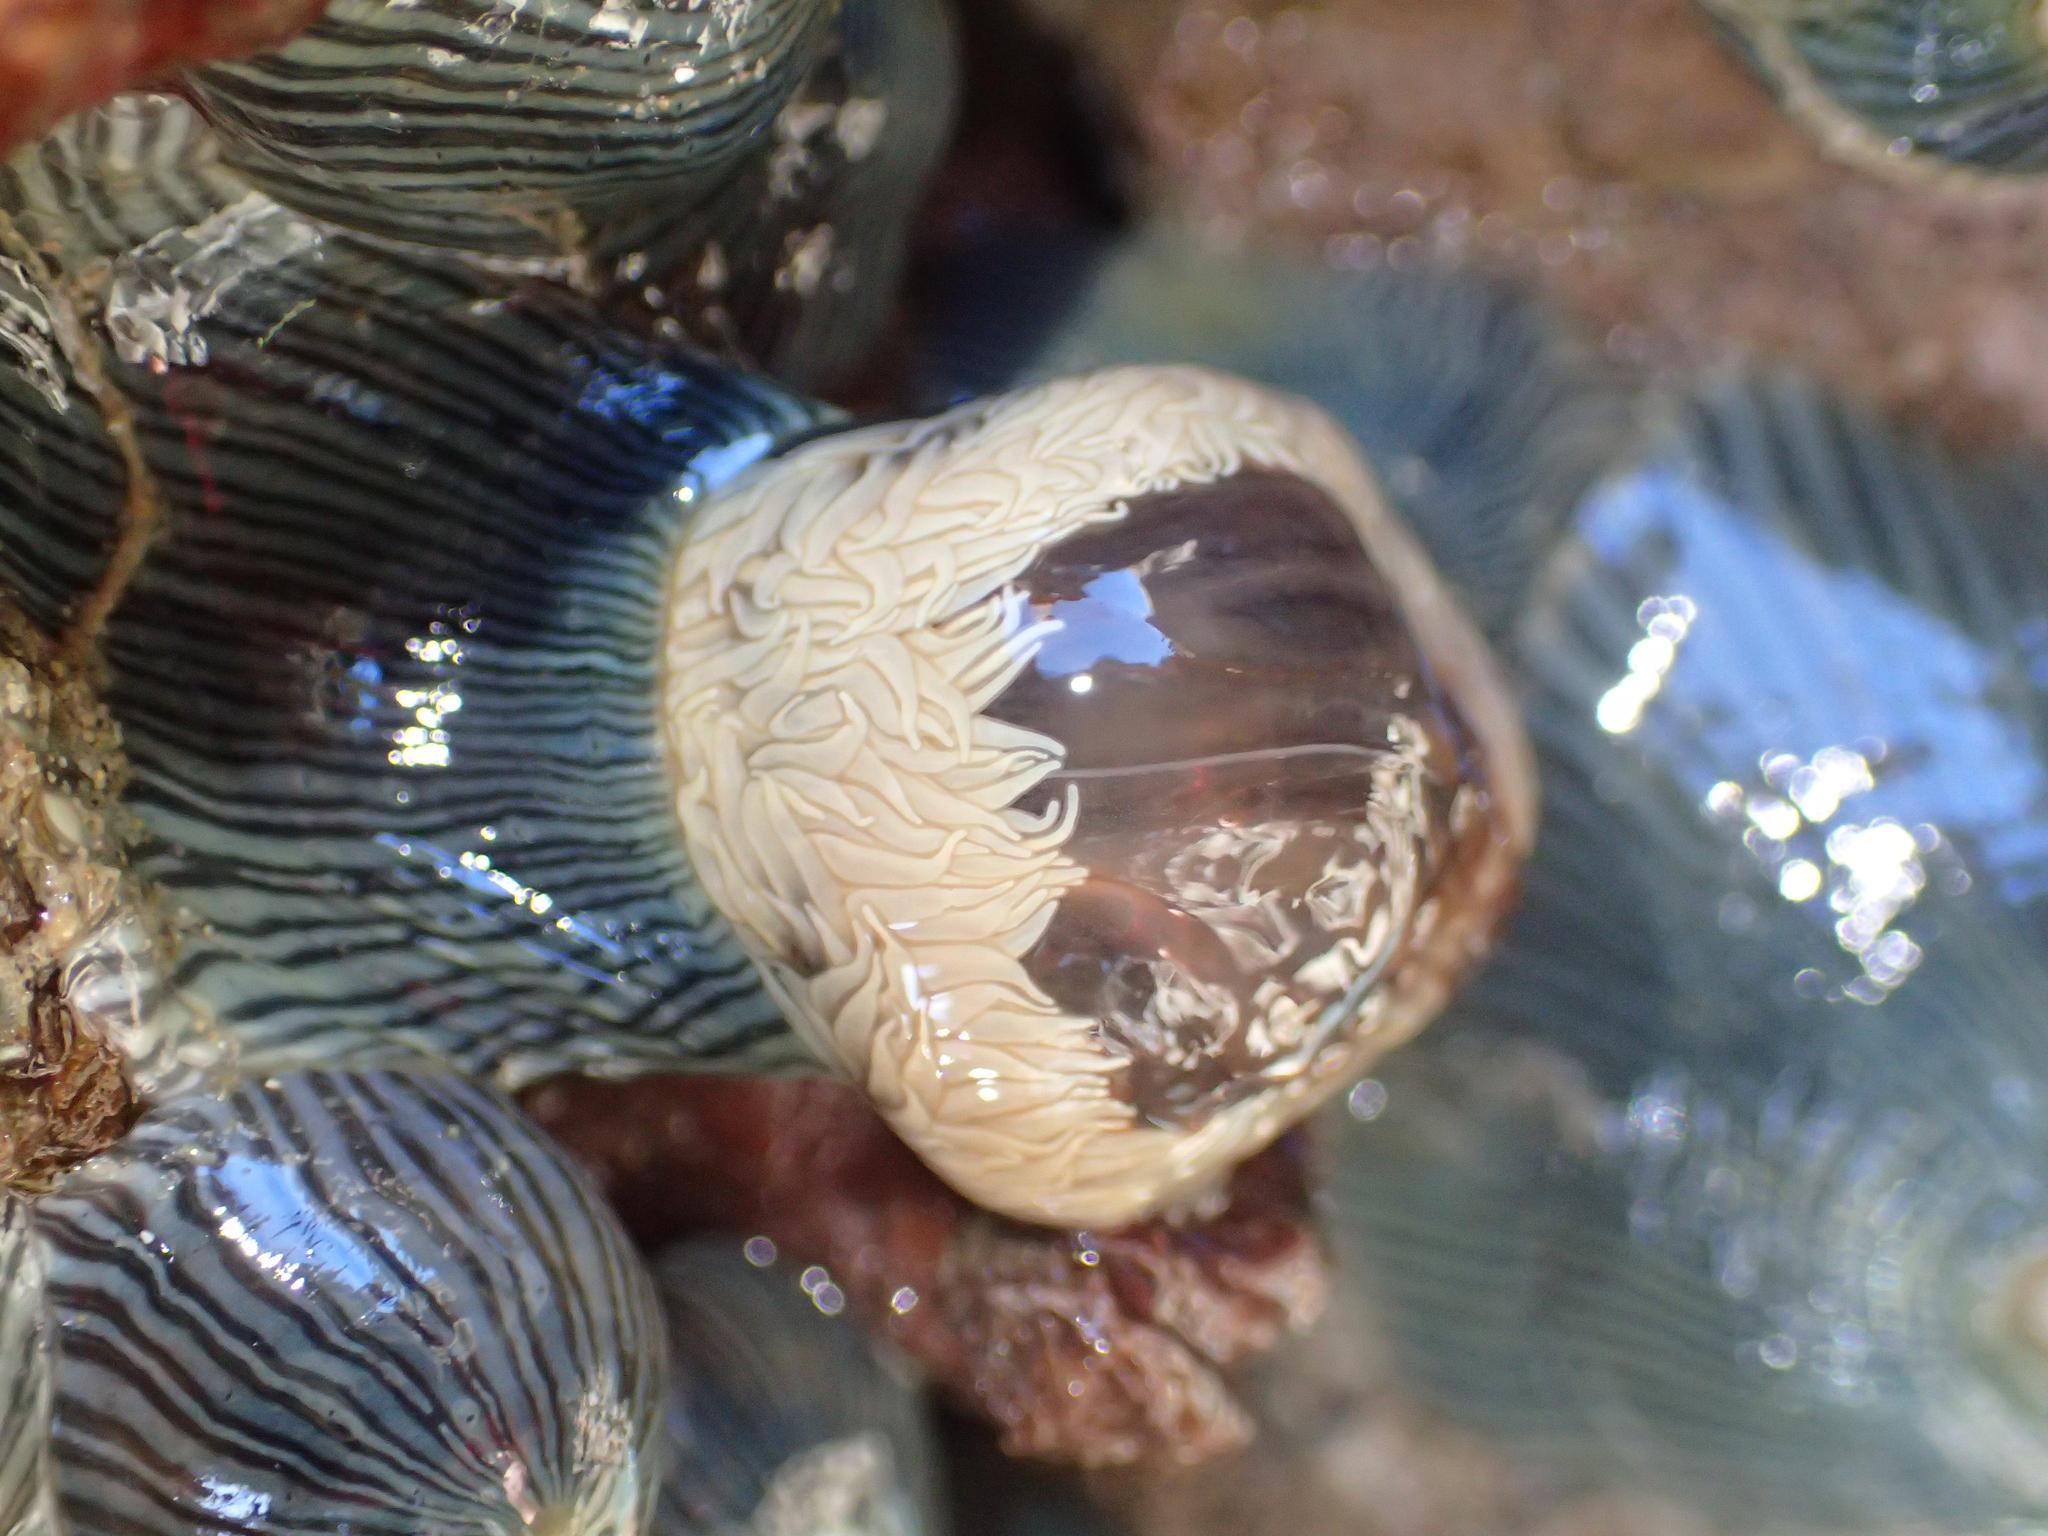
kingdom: Animalia
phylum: Cnidaria
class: Anthozoa
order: Actiniaria
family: Diadumenidae
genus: Diadumene
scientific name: Diadumene neozelanica
